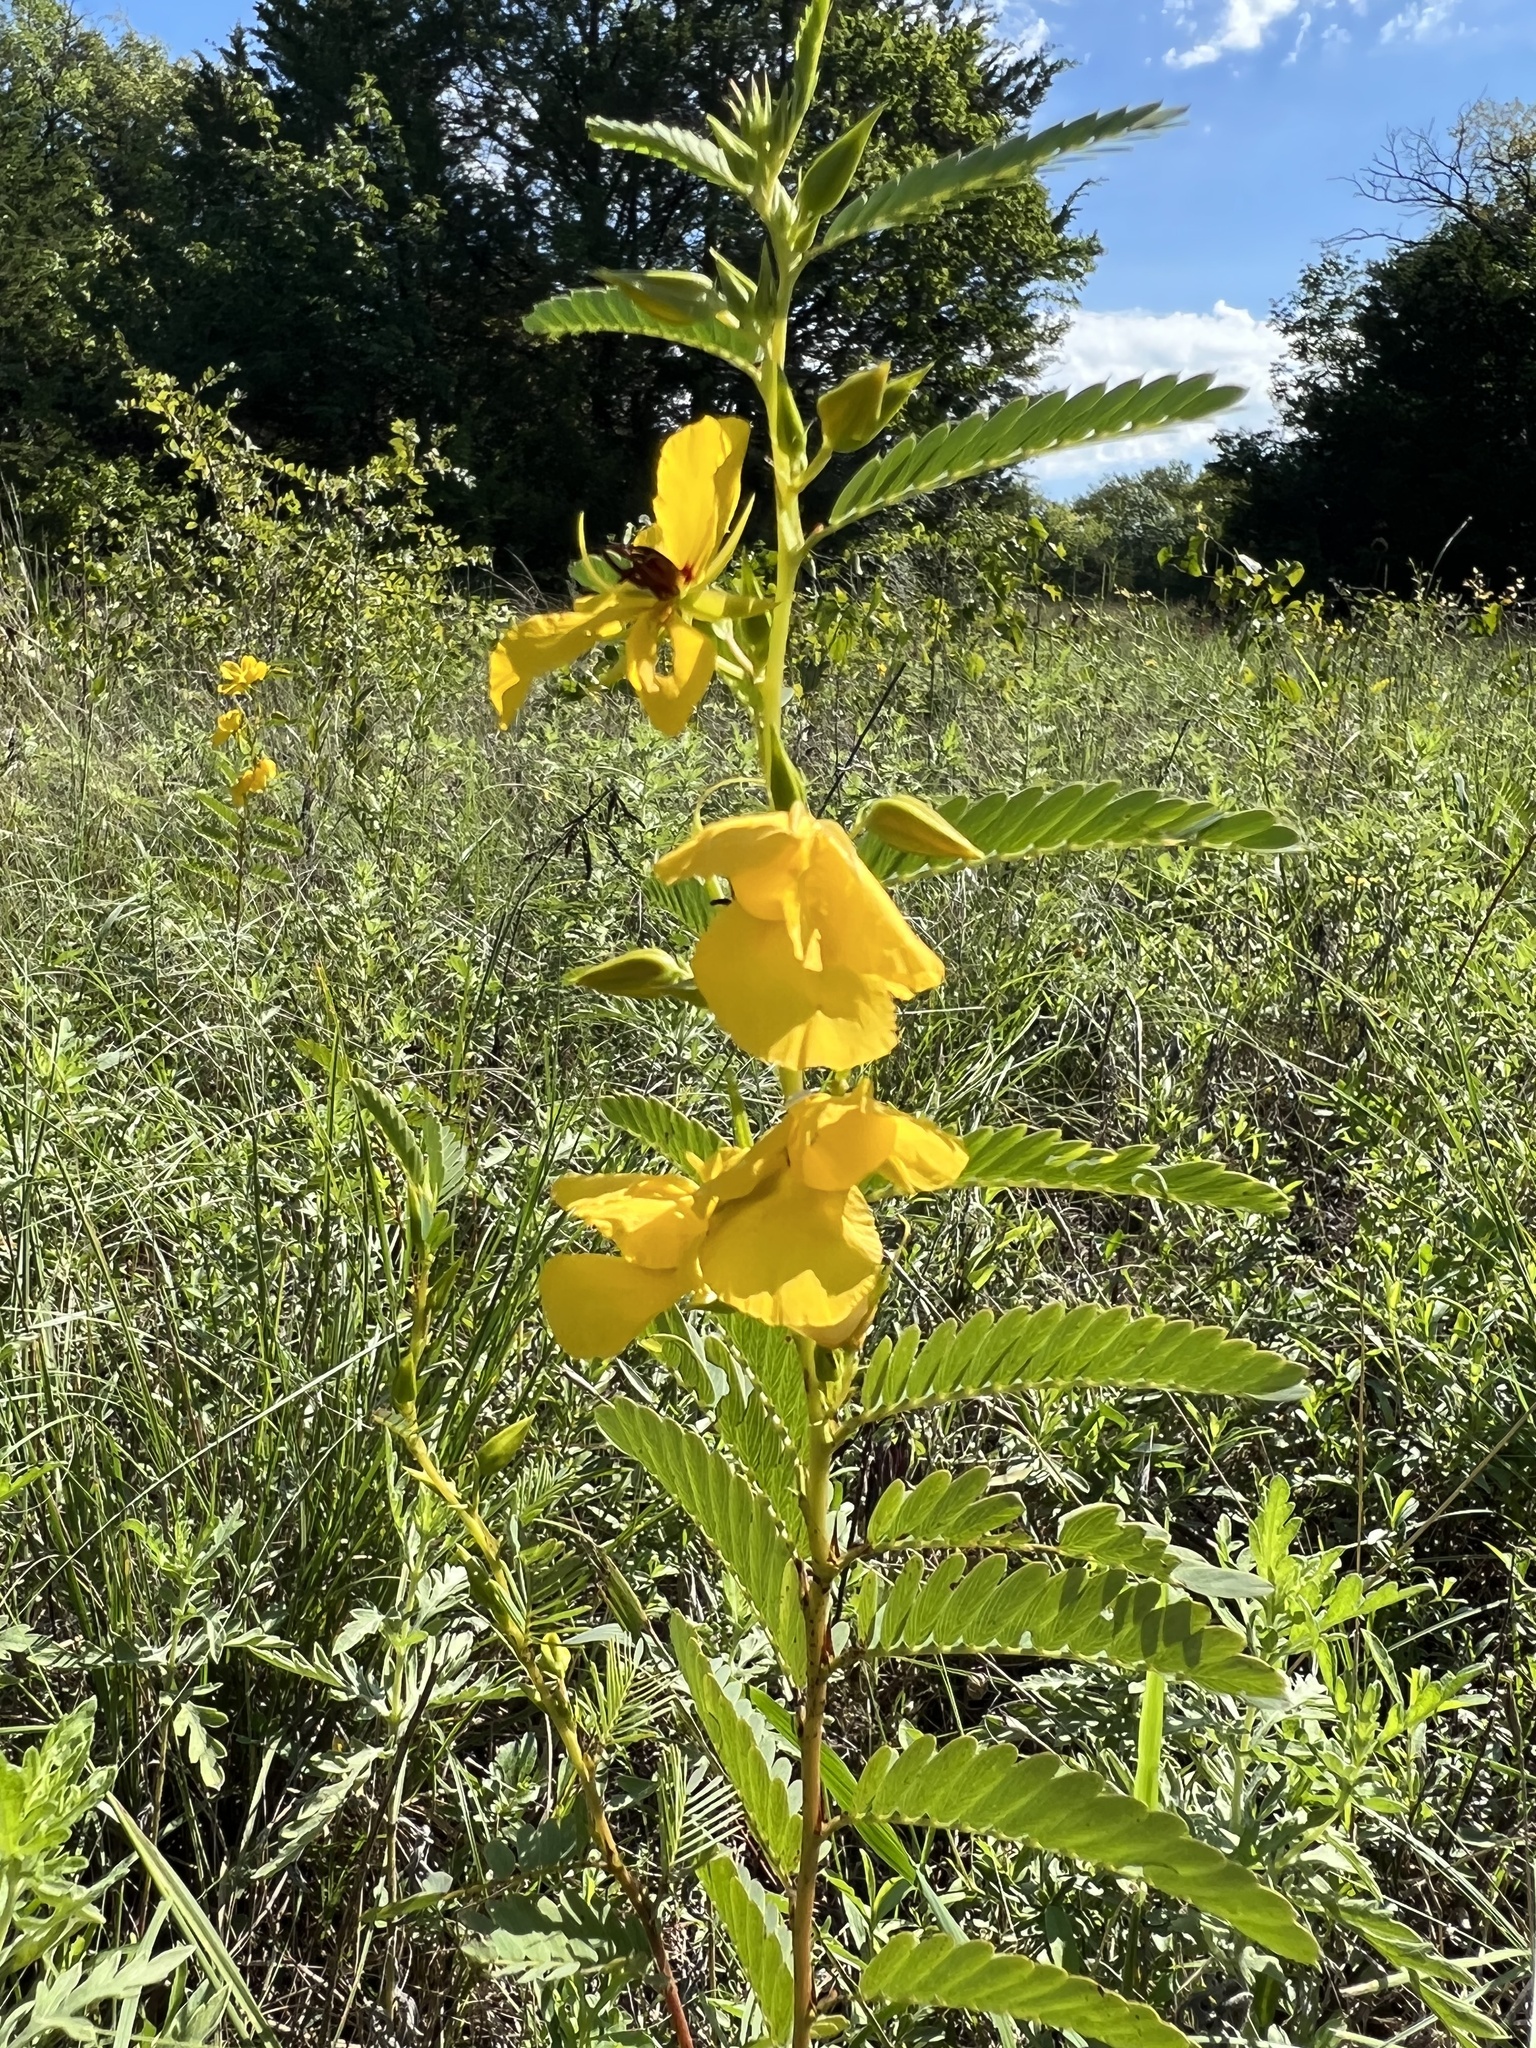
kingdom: Plantae
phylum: Tracheophyta
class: Magnoliopsida
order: Fabales
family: Fabaceae
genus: Chamaecrista
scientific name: Chamaecrista fasciculata
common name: Golden cassia
